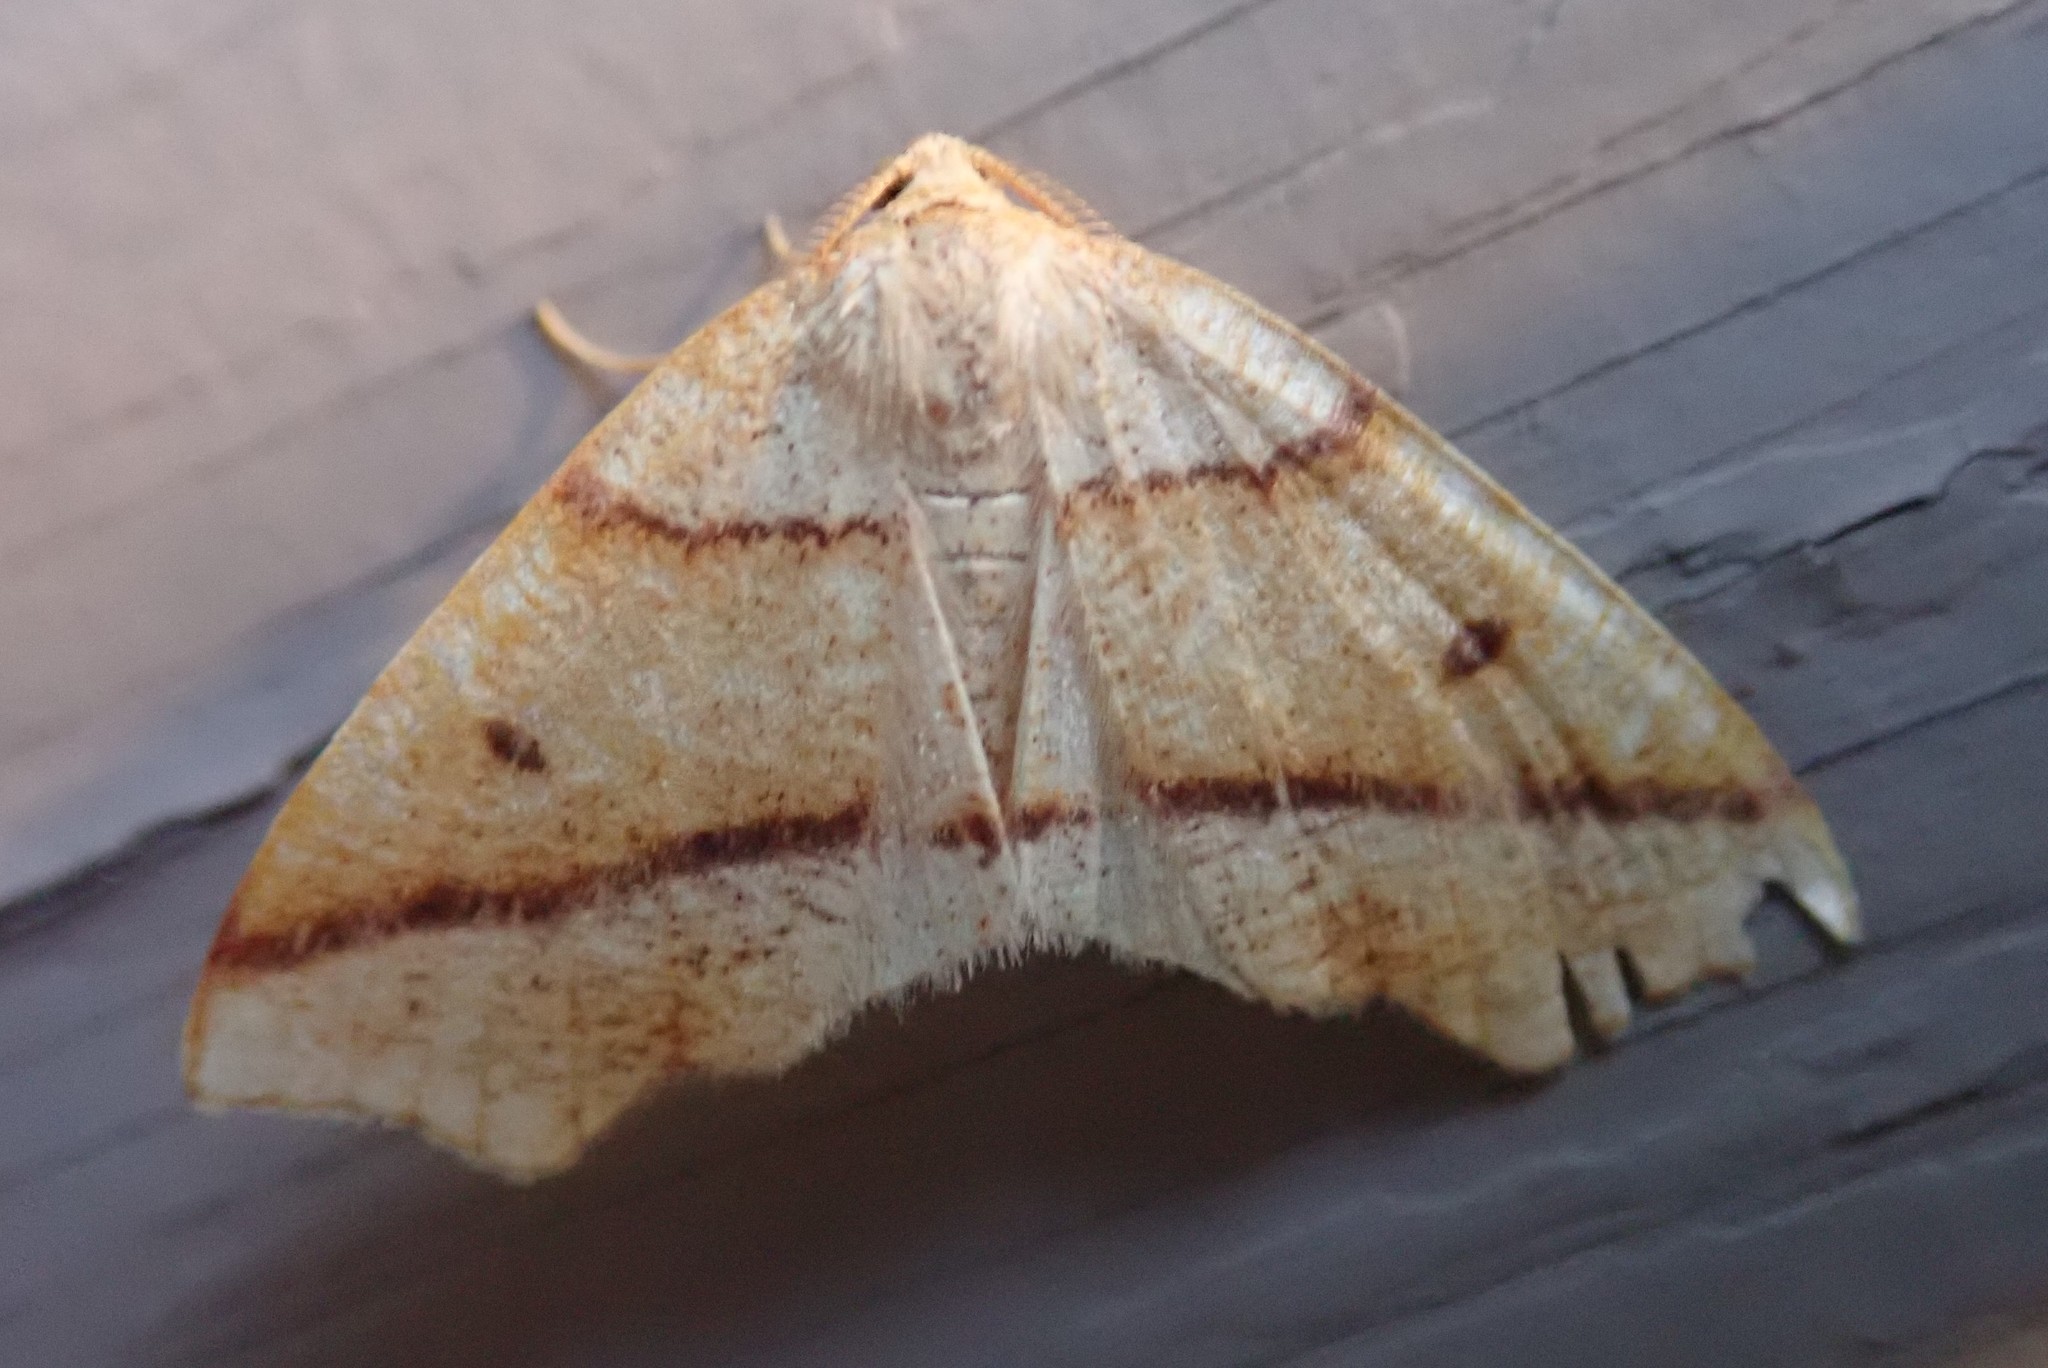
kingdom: Animalia
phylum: Arthropoda
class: Insecta
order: Lepidoptera
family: Geometridae
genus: Plagodis
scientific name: Plagodis alcoolaria
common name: Hollow-spotted plagodis
